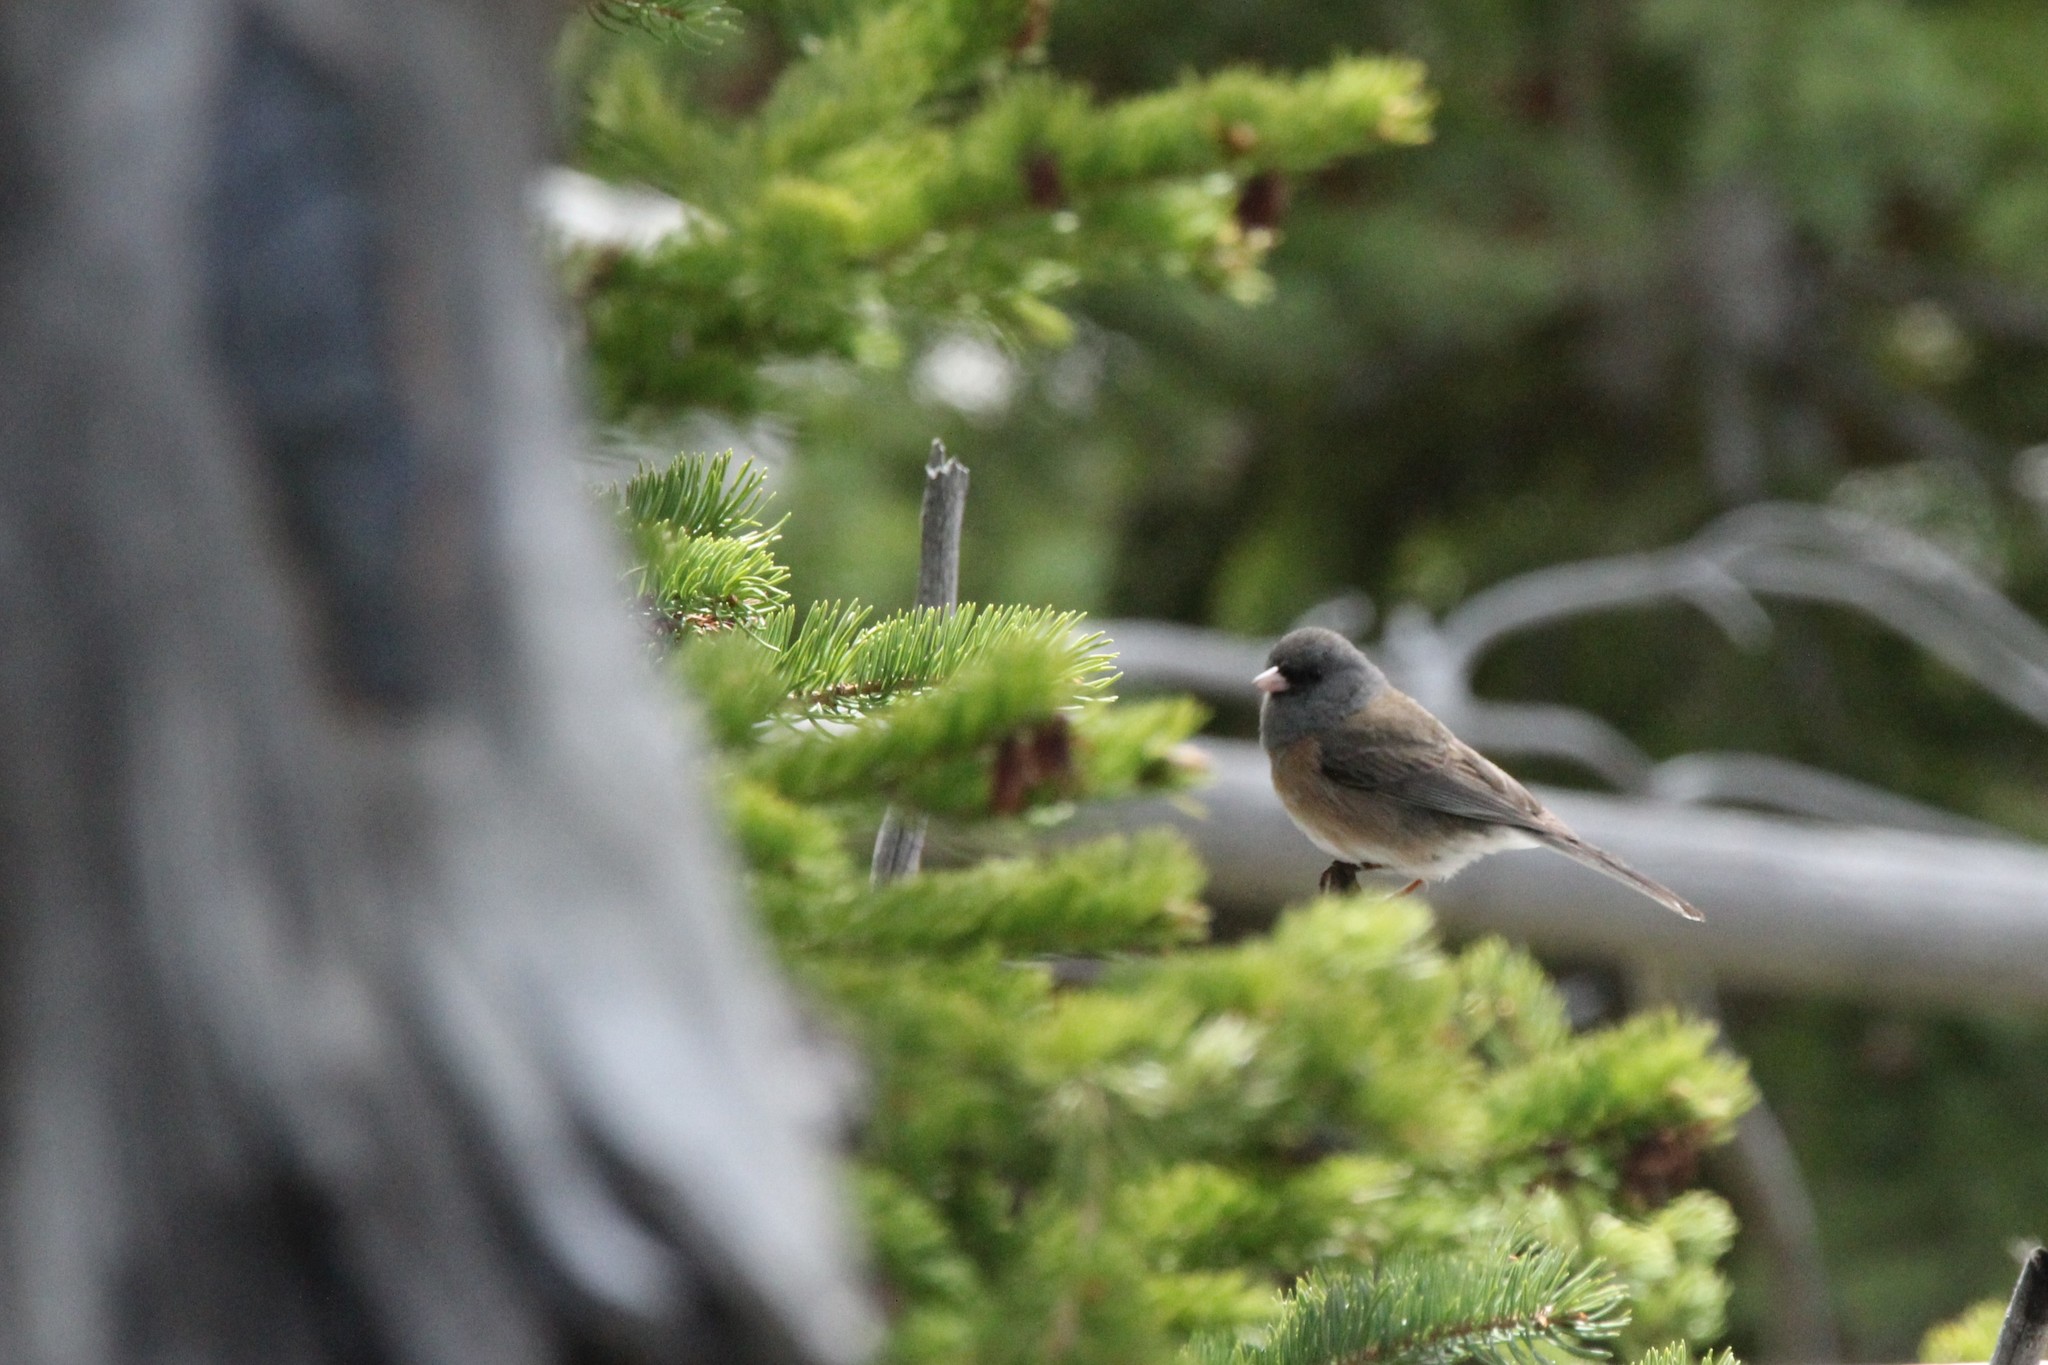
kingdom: Animalia
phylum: Chordata
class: Aves
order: Passeriformes
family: Passerellidae
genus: Junco
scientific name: Junco hyemalis
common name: Dark-eyed junco
